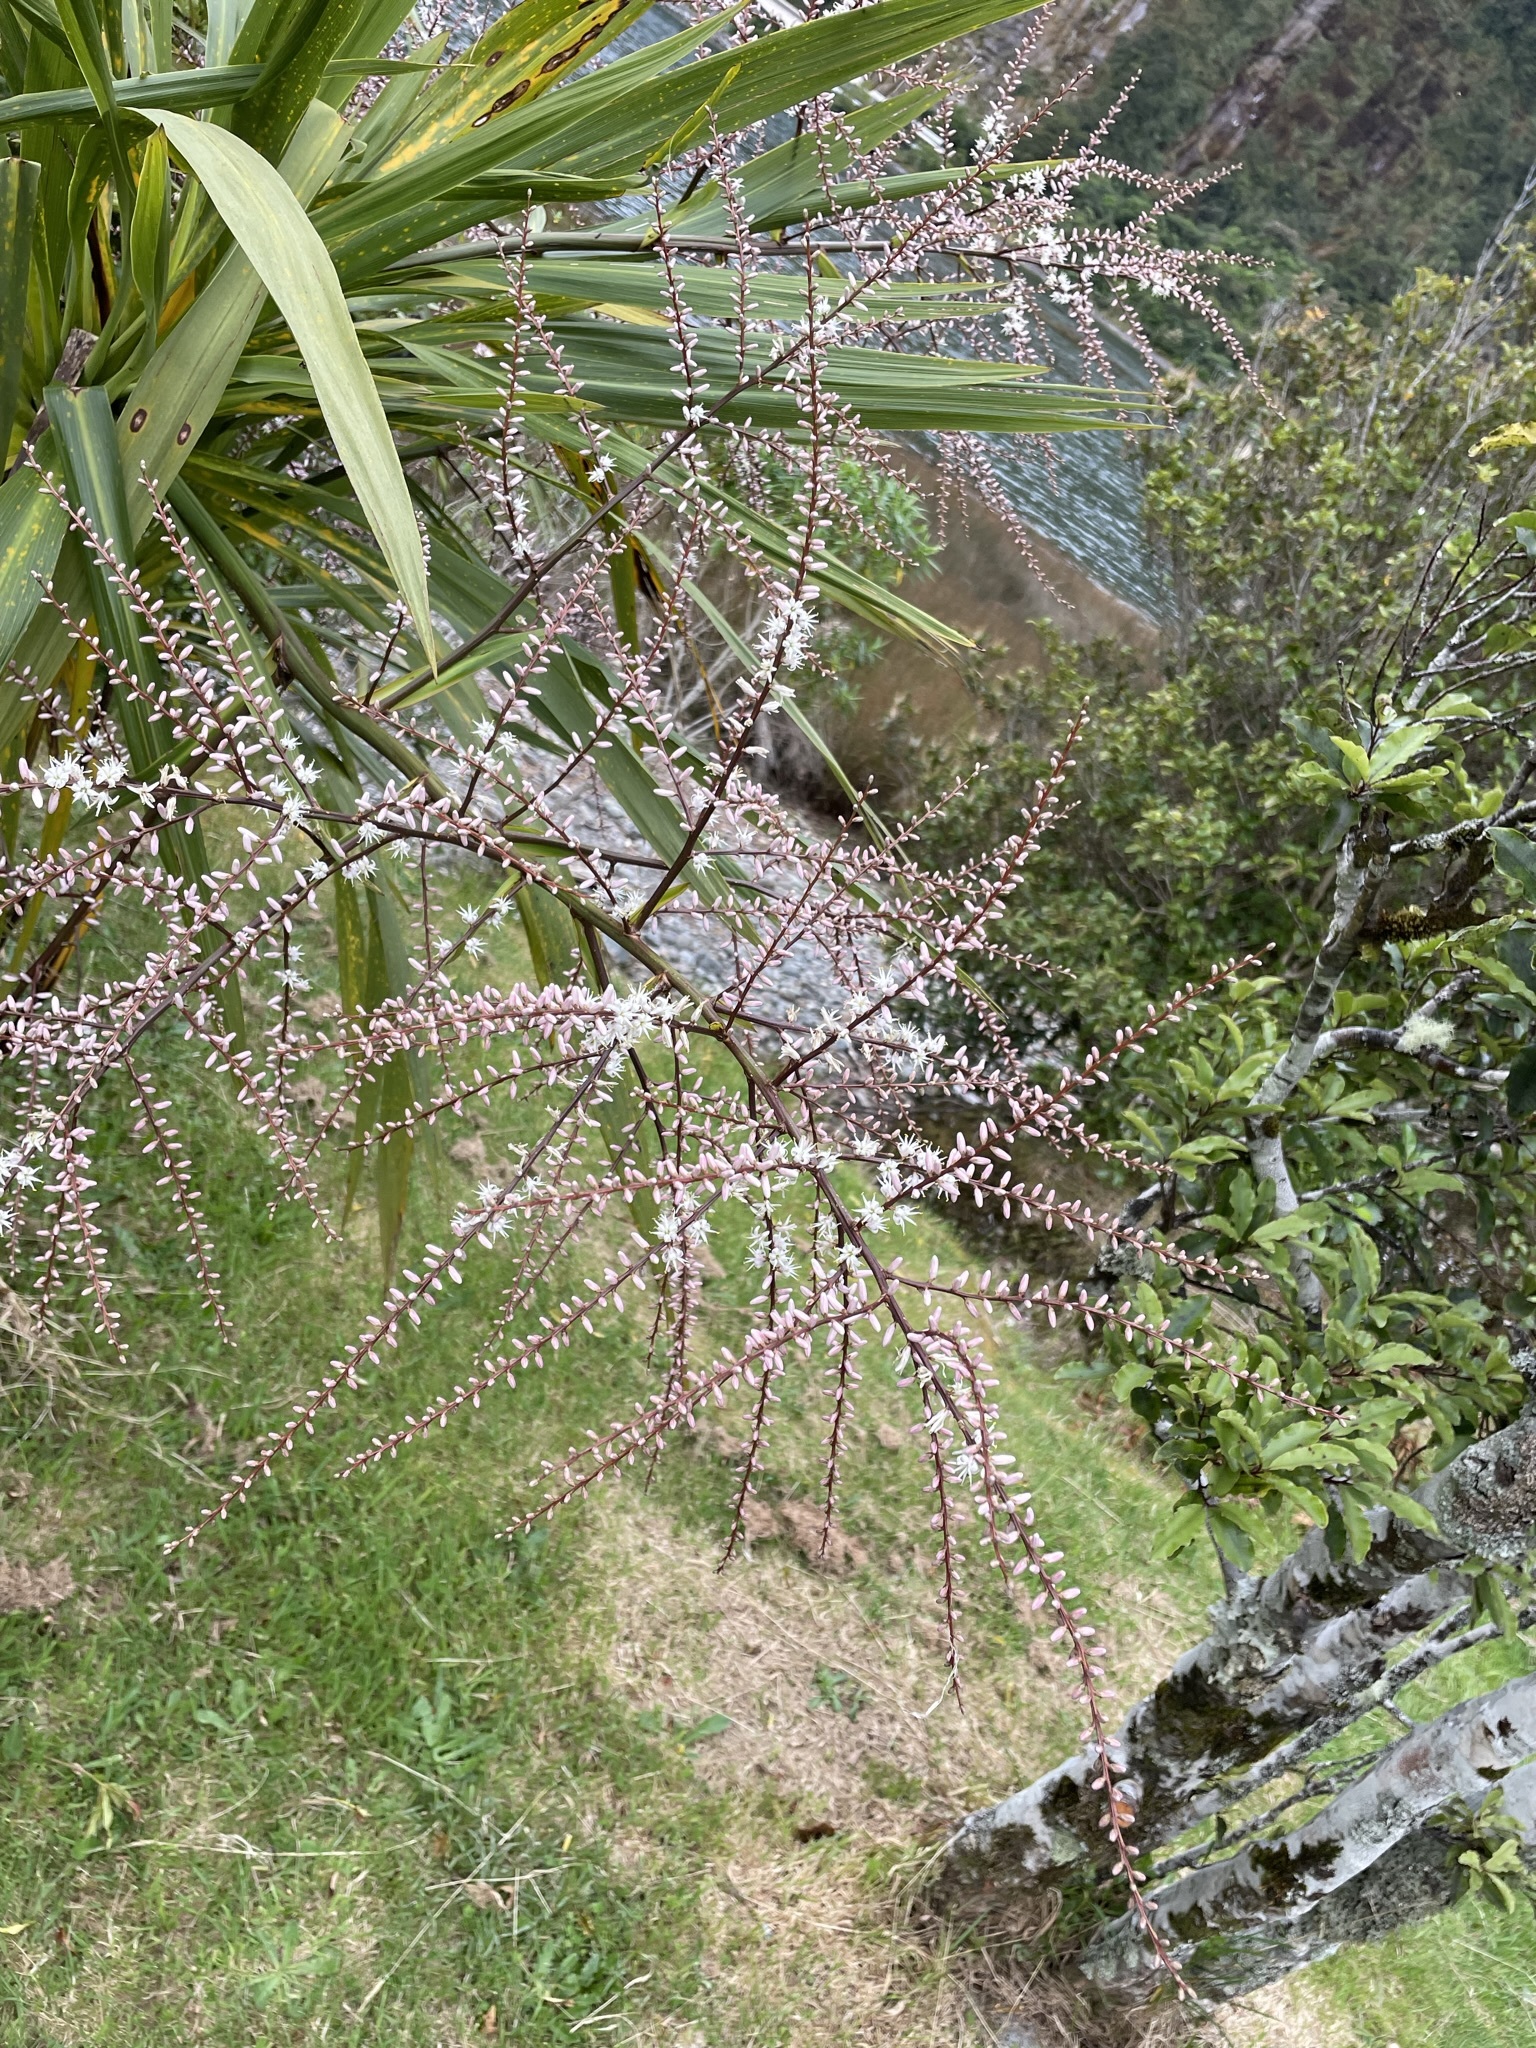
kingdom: Plantae
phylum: Tracheophyta
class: Liliopsida
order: Asparagales
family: Asparagaceae
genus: Cordyline
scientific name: Cordyline australis
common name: Cabbage-palm
